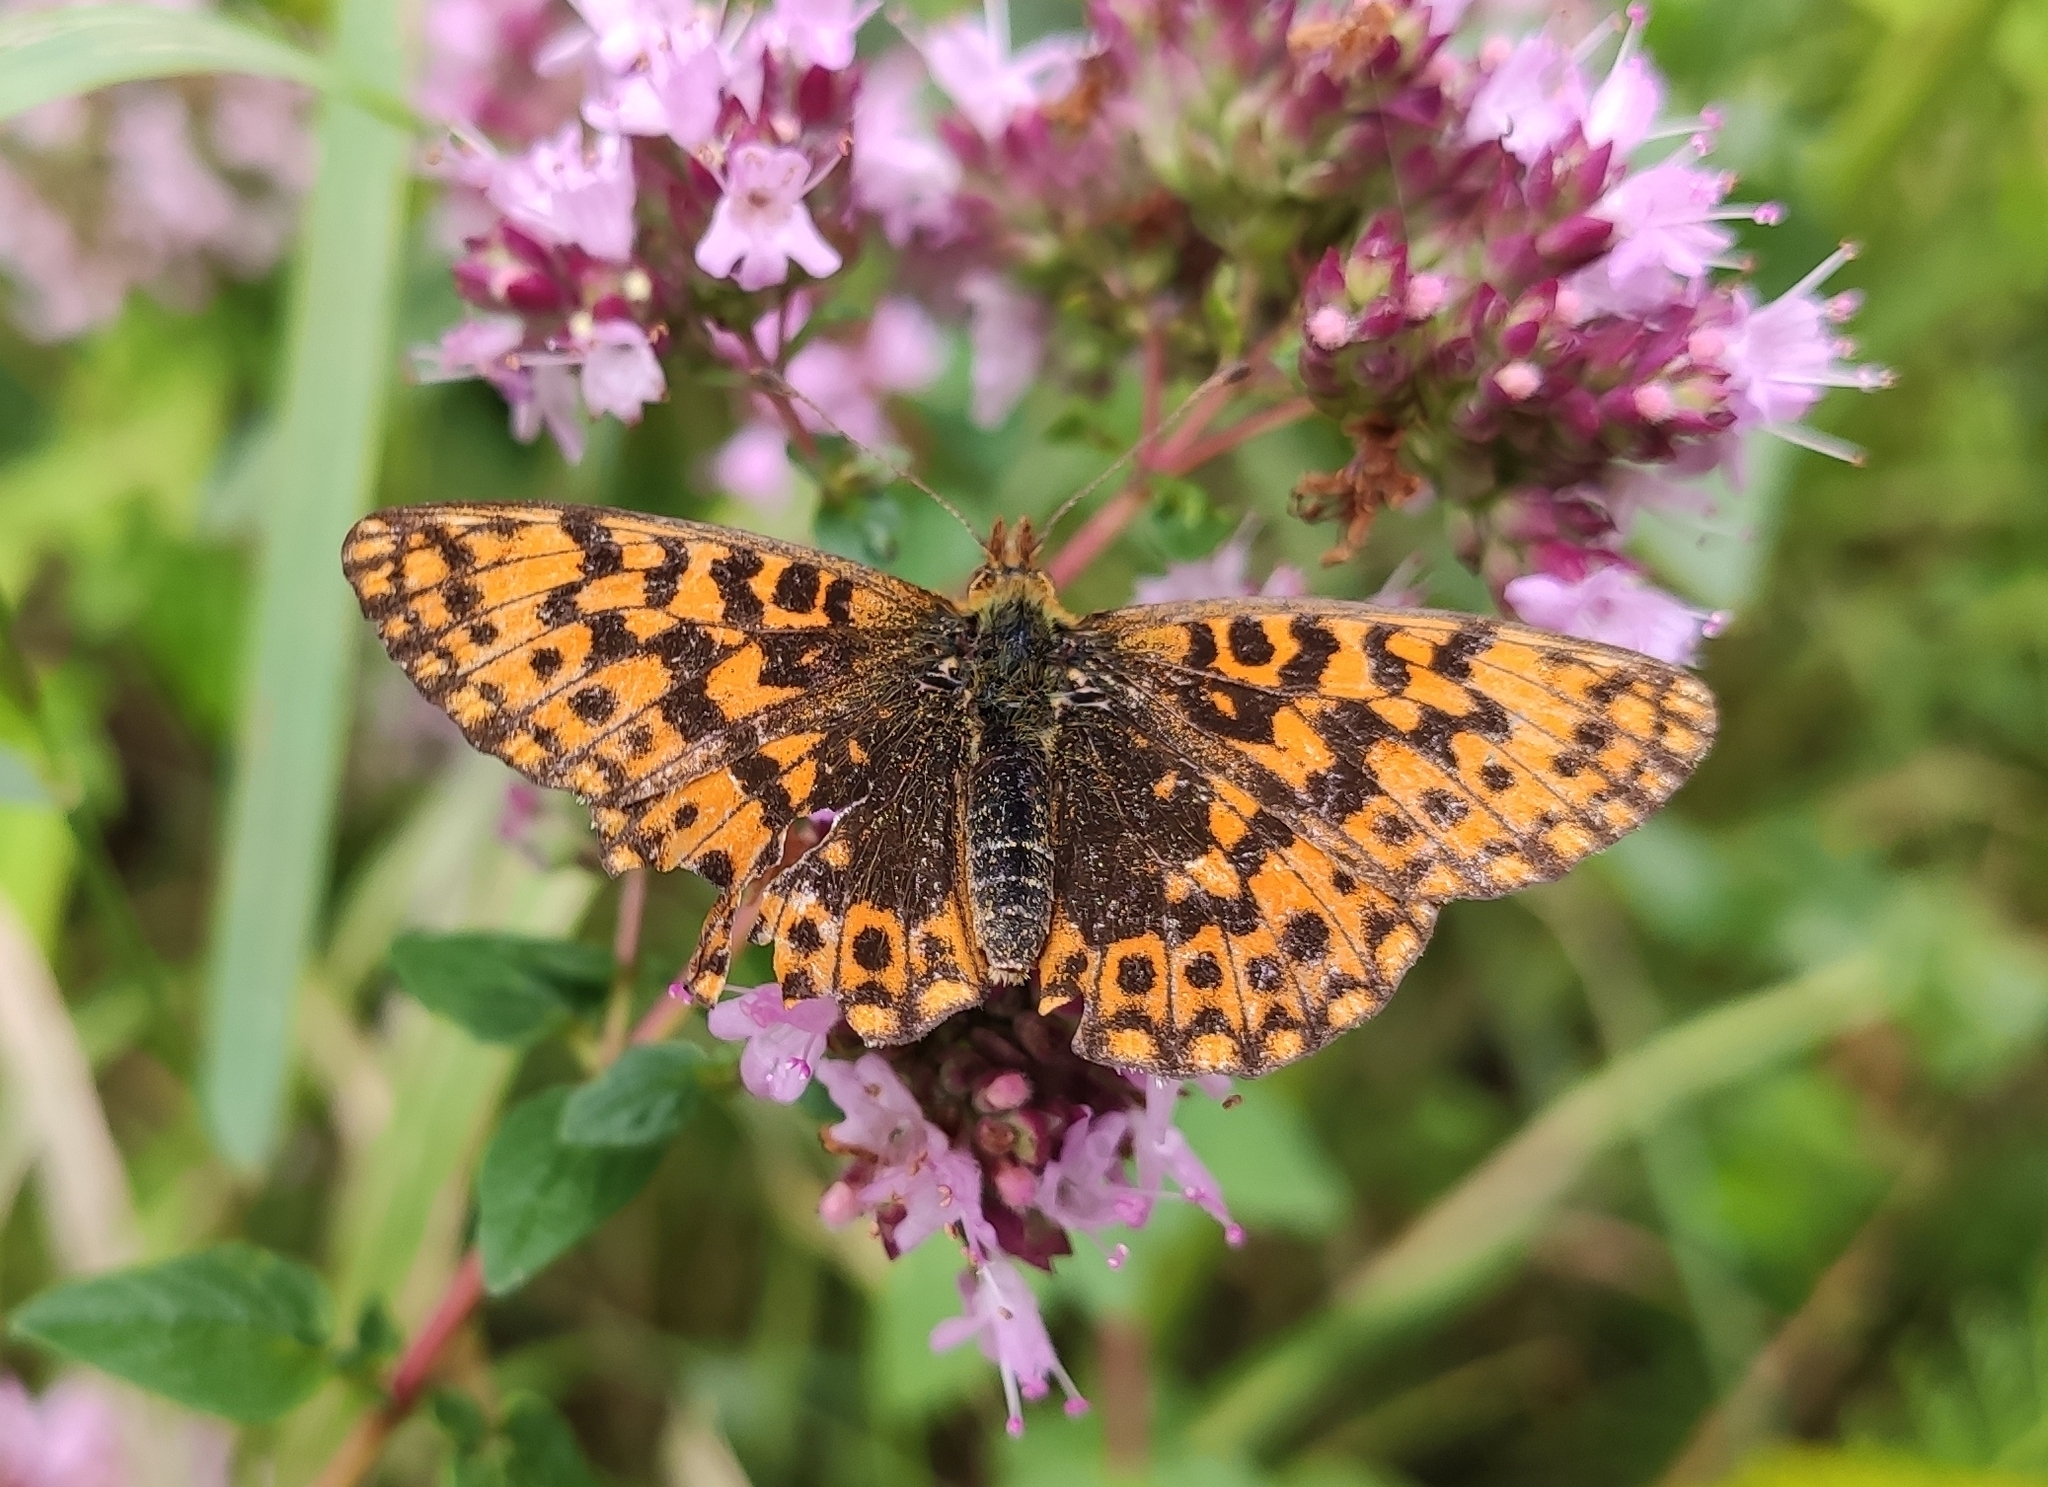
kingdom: Animalia
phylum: Arthropoda
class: Insecta
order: Lepidoptera
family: Nymphalidae
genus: Boloria
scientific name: Boloria dia
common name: Weaver's fritillary
